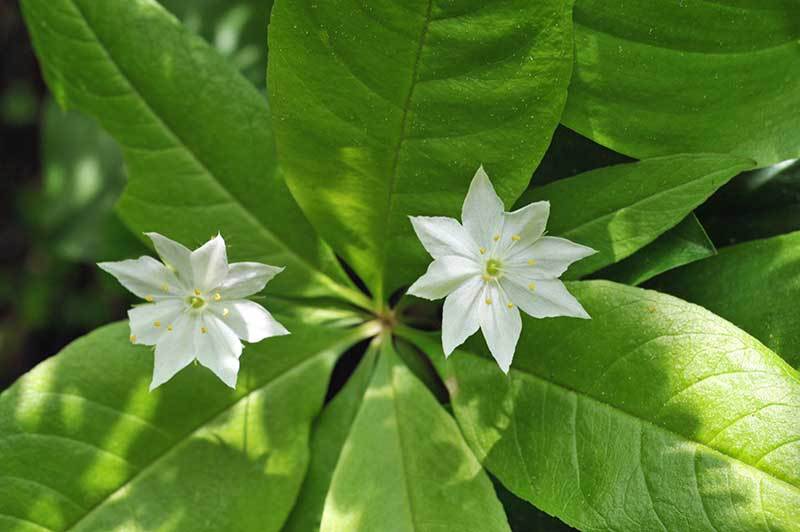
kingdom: Plantae
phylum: Tracheophyta
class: Magnoliopsida
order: Ericales
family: Primulaceae
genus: Lysimachia
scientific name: Lysimachia borealis
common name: American starflower
